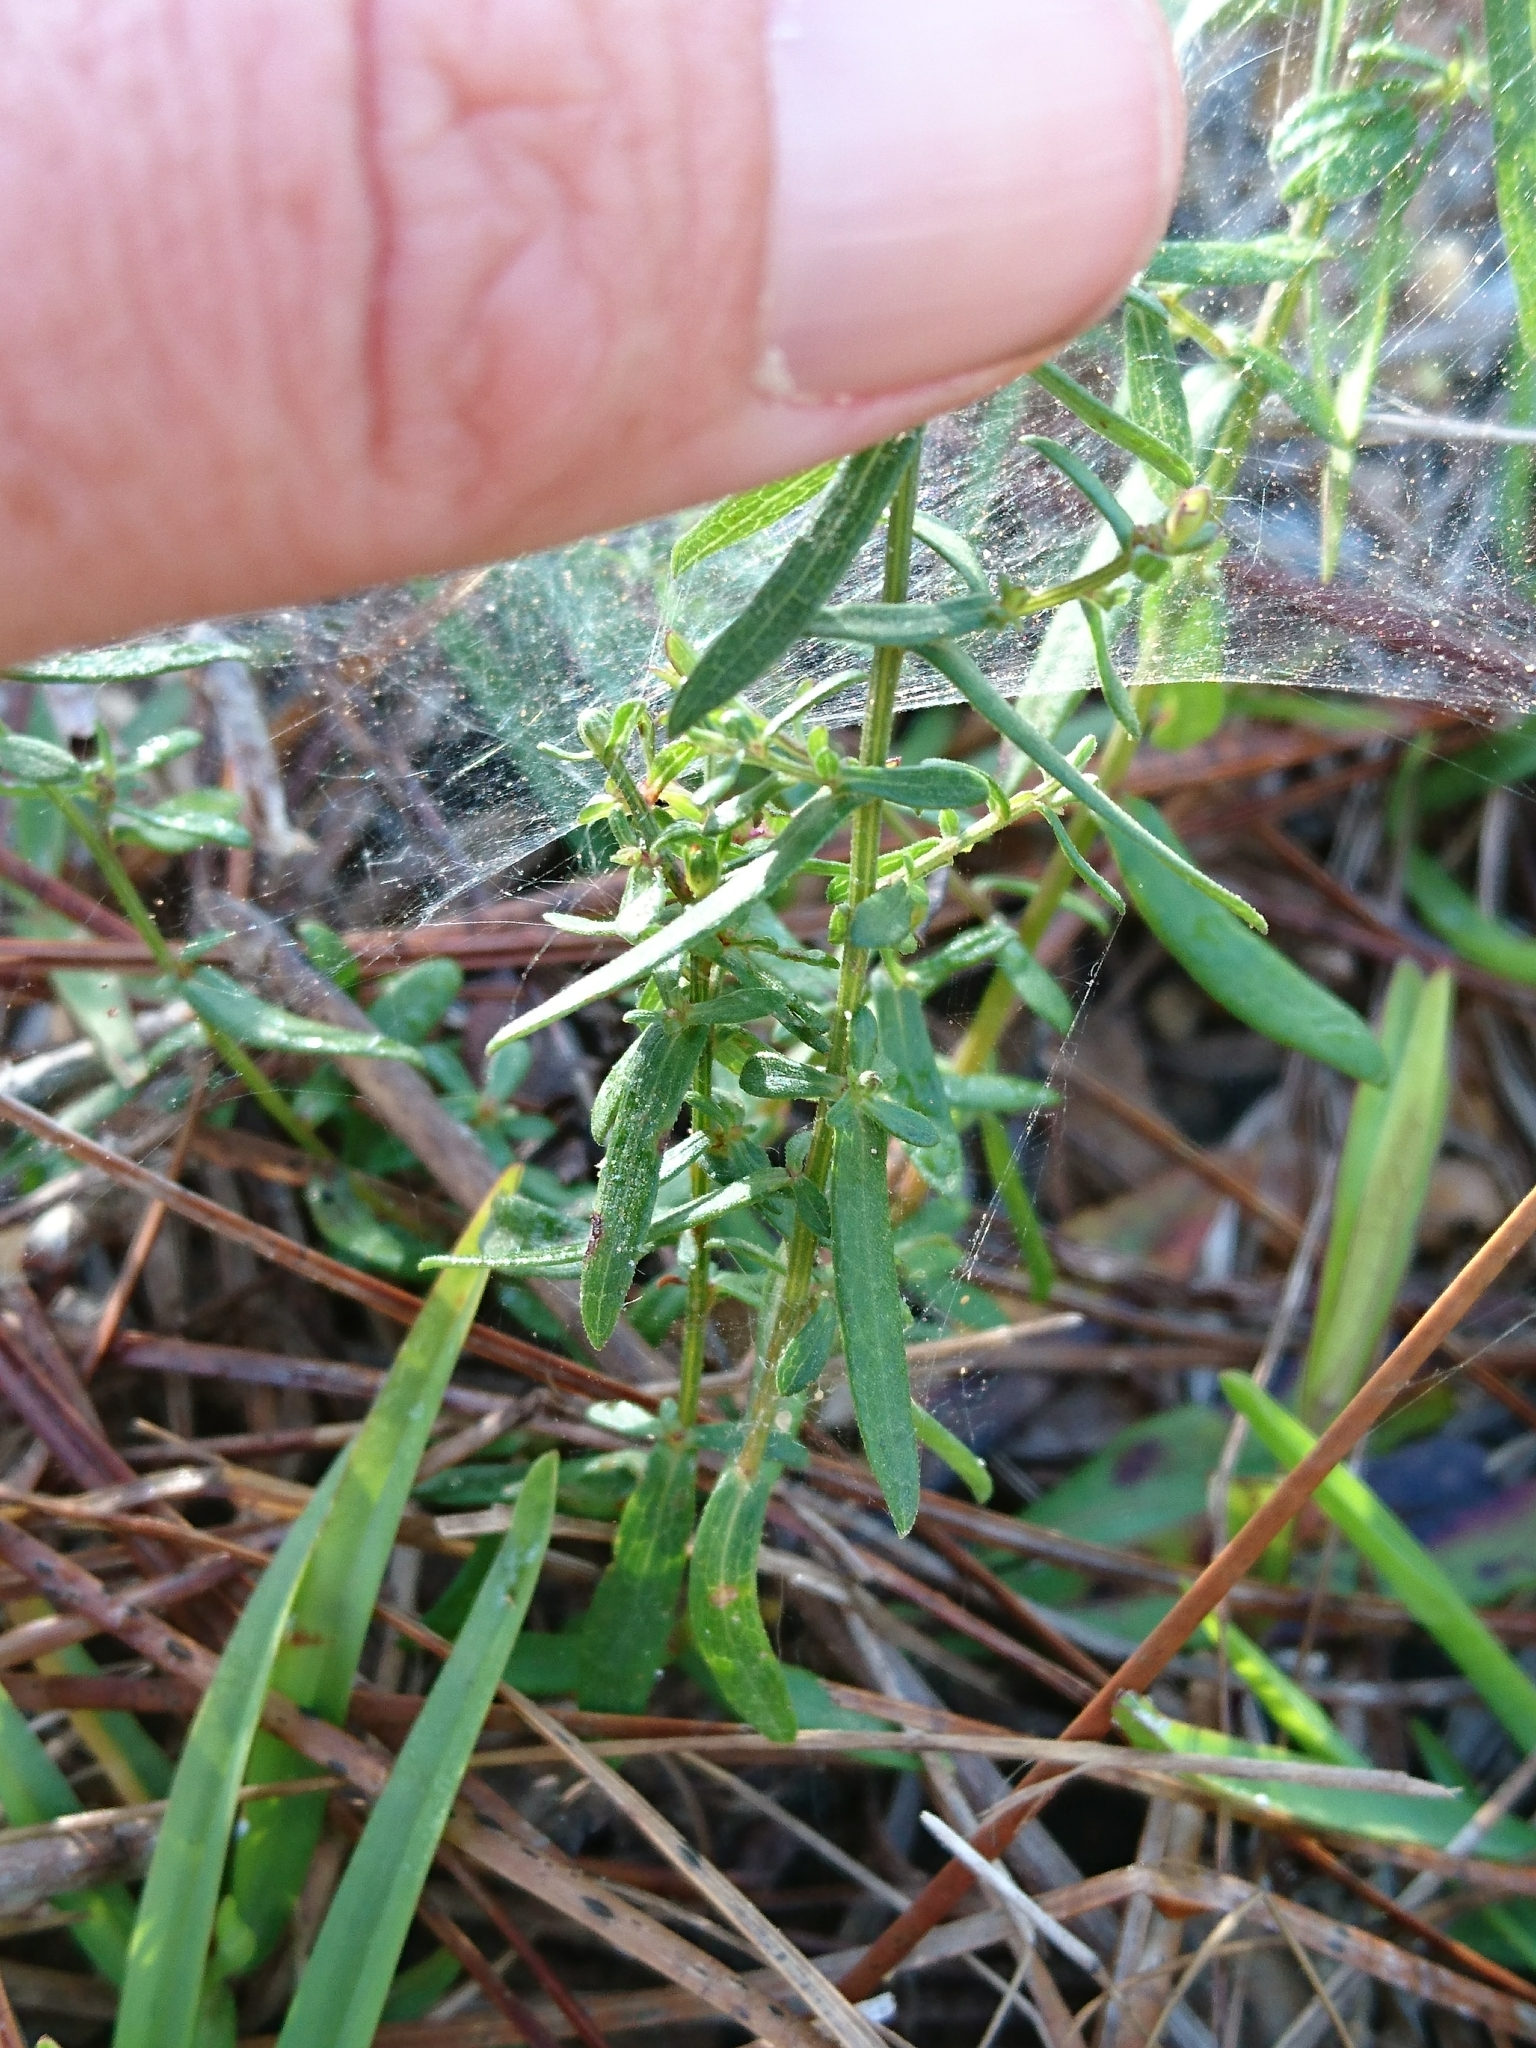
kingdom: Plantae
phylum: Tracheophyta
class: Magnoliopsida
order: Asterales
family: Asteraceae
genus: Symphyotrichum
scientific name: Symphyotrichum dumosum
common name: Bushy aster
